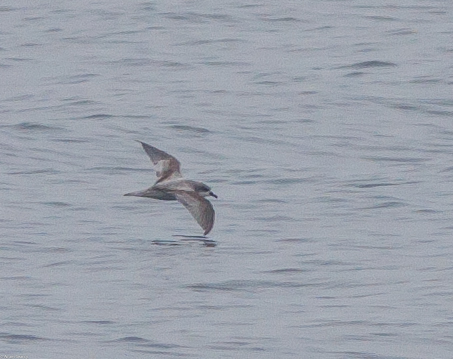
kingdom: Animalia
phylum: Chordata
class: Aves
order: Procellariiformes
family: Procellariidae
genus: Pterodroma
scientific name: Pterodroma cookii
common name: Cook's petrel
